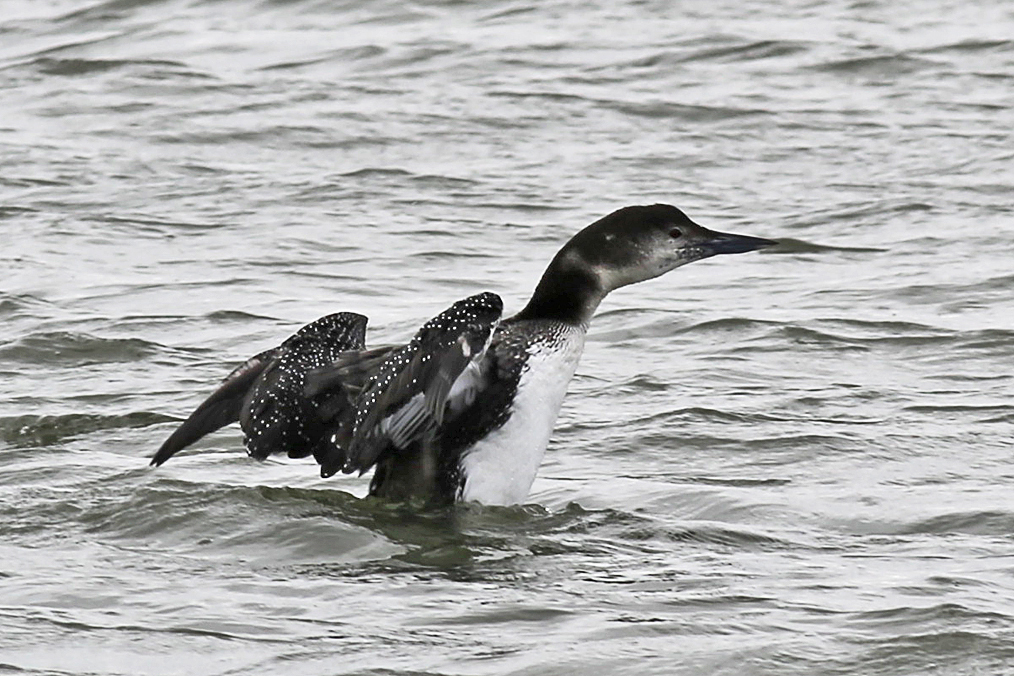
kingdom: Animalia
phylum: Chordata
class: Aves
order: Gaviiformes
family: Gaviidae
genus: Gavia
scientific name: Gavia immer
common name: Common loon
